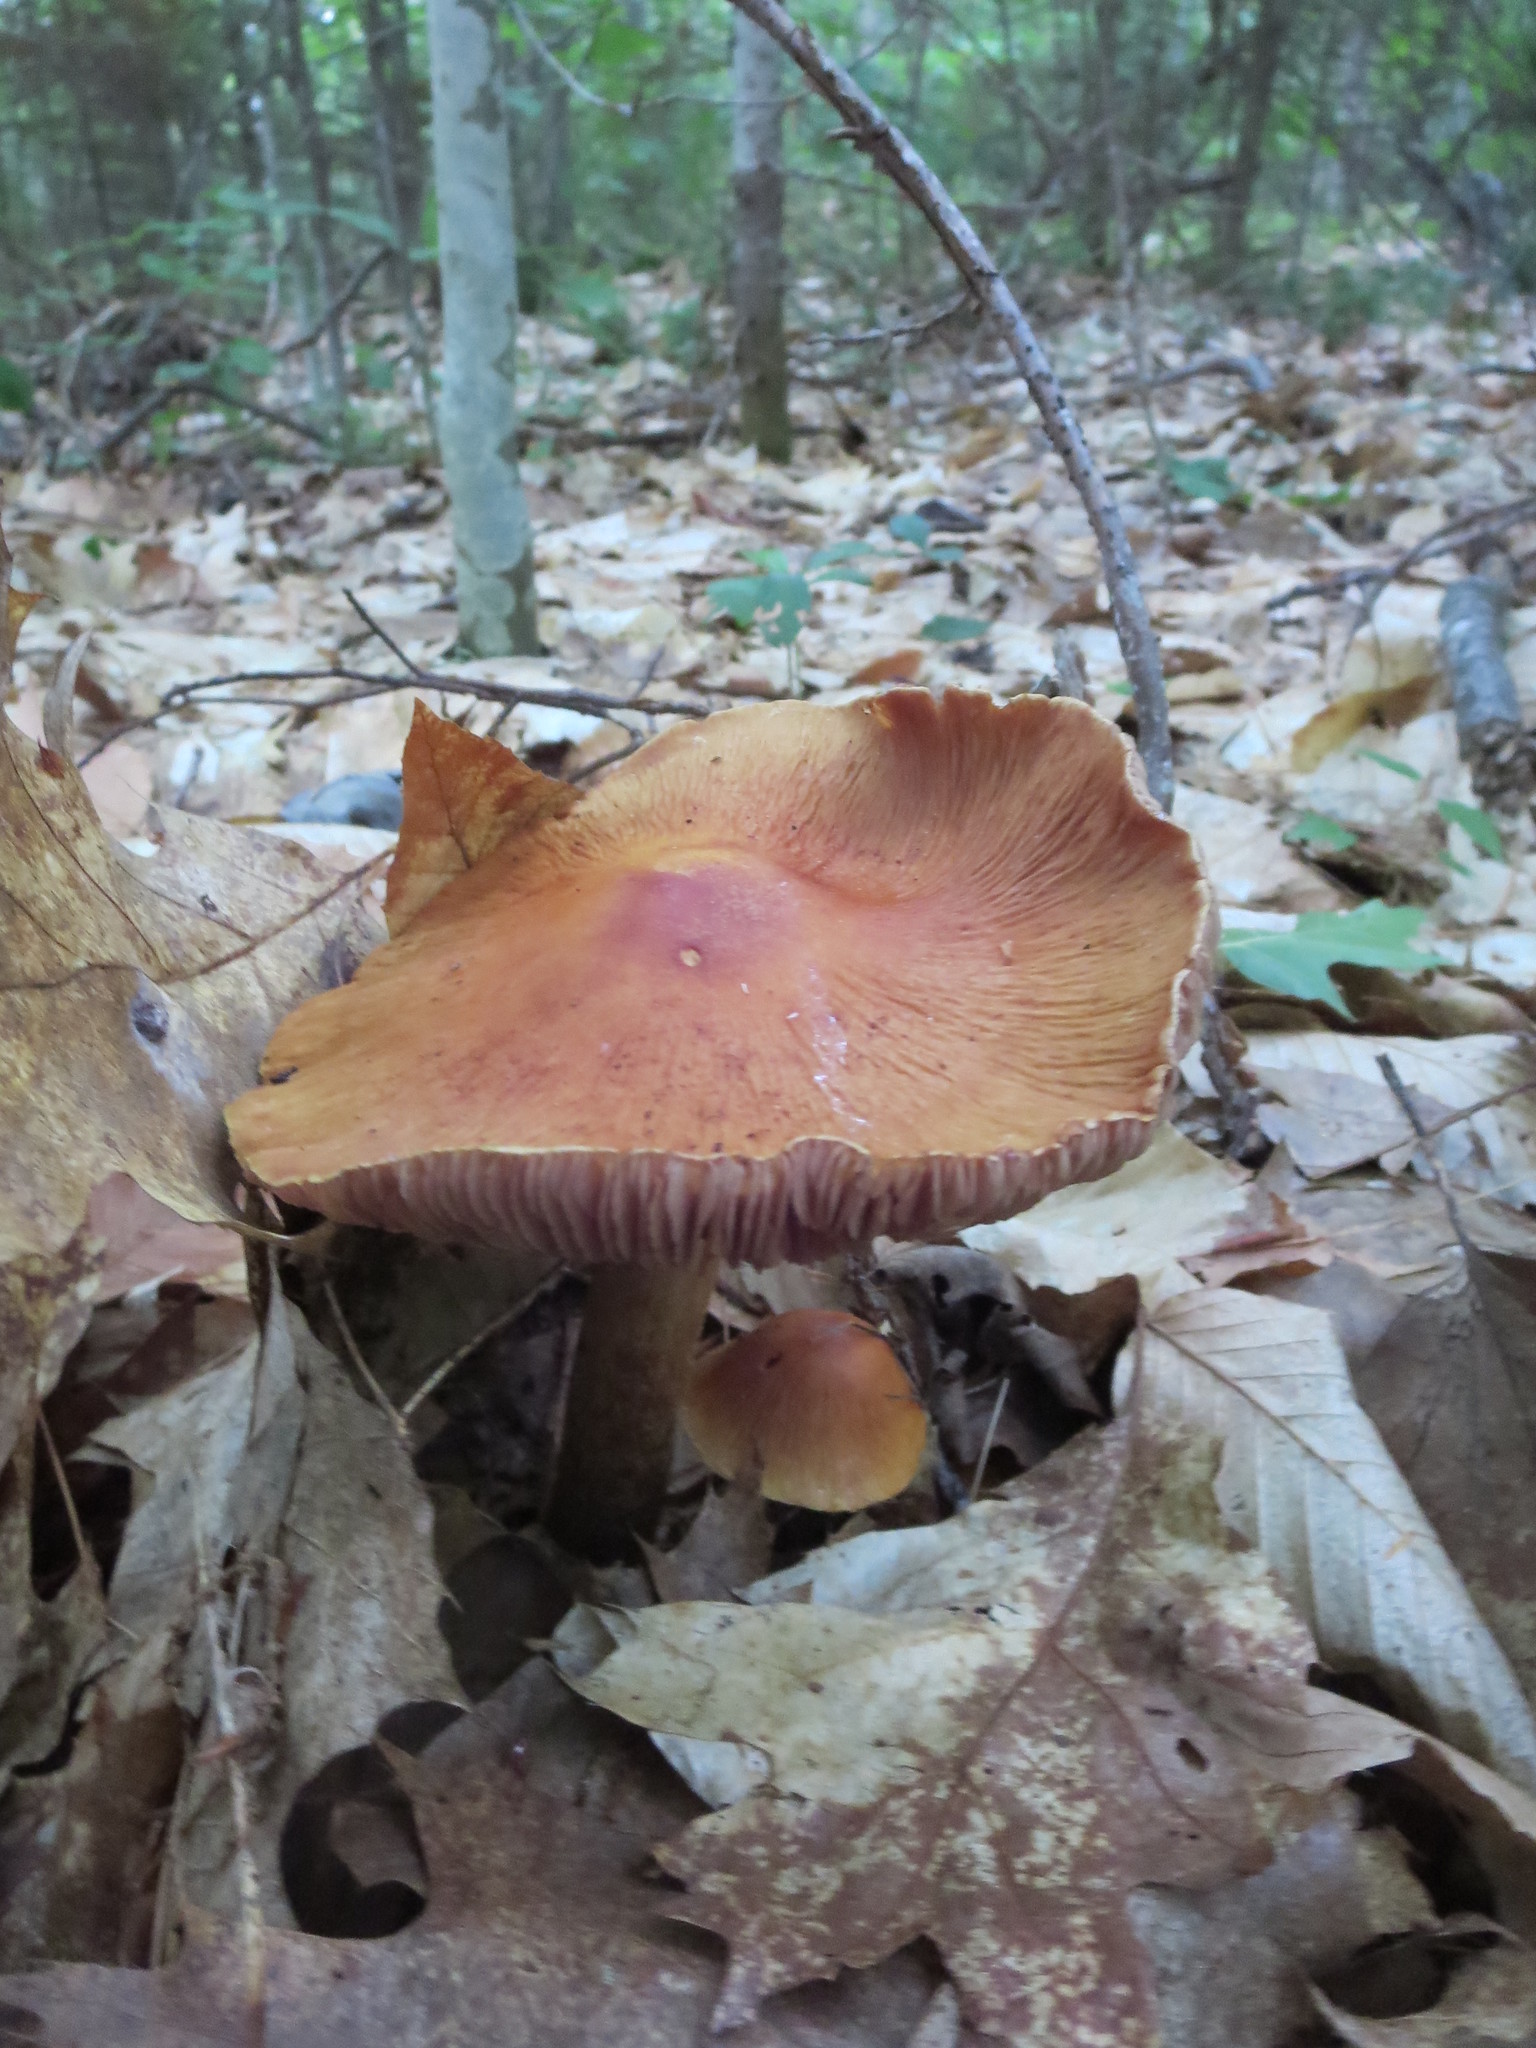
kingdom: Fungi
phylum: Basidiomycota
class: Agaricomycetes
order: Agaricales
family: Cortinariaceae
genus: Cortinarius
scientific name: Cortinarius corrugatus
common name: Wrinkled cortinarius
